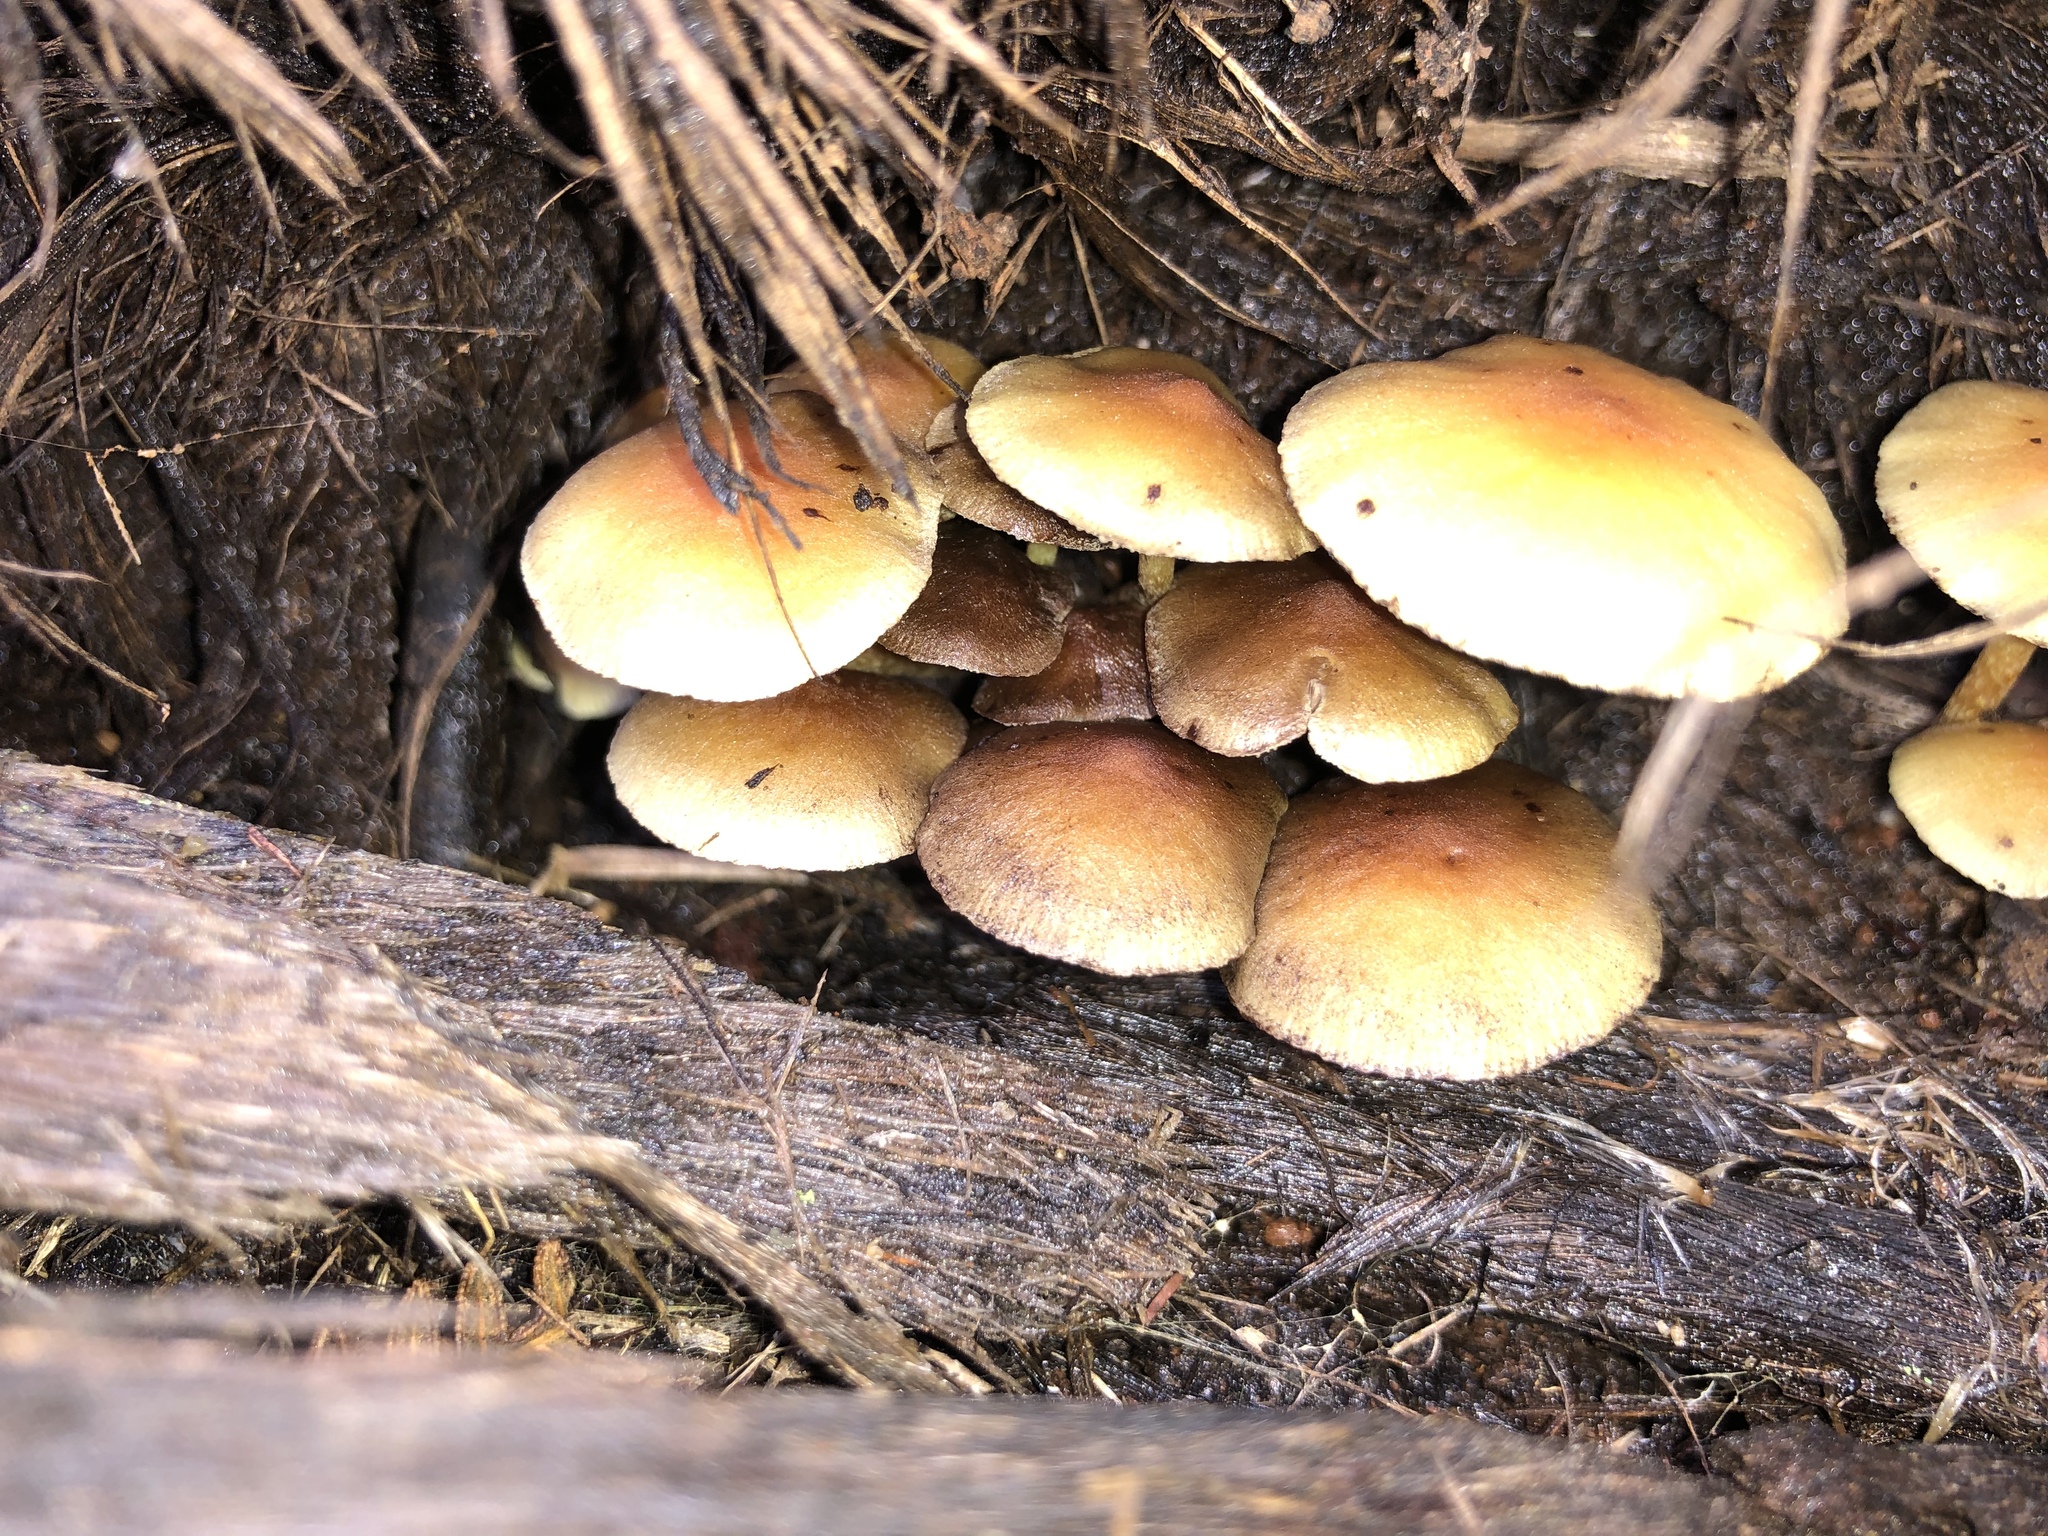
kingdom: Fungi
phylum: Basidiomycota
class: Agaricomycetes
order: Agaricales
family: Strophariaceae
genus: Hypholoma
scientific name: Hypholoma fasciculare
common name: Sulphur tuft
